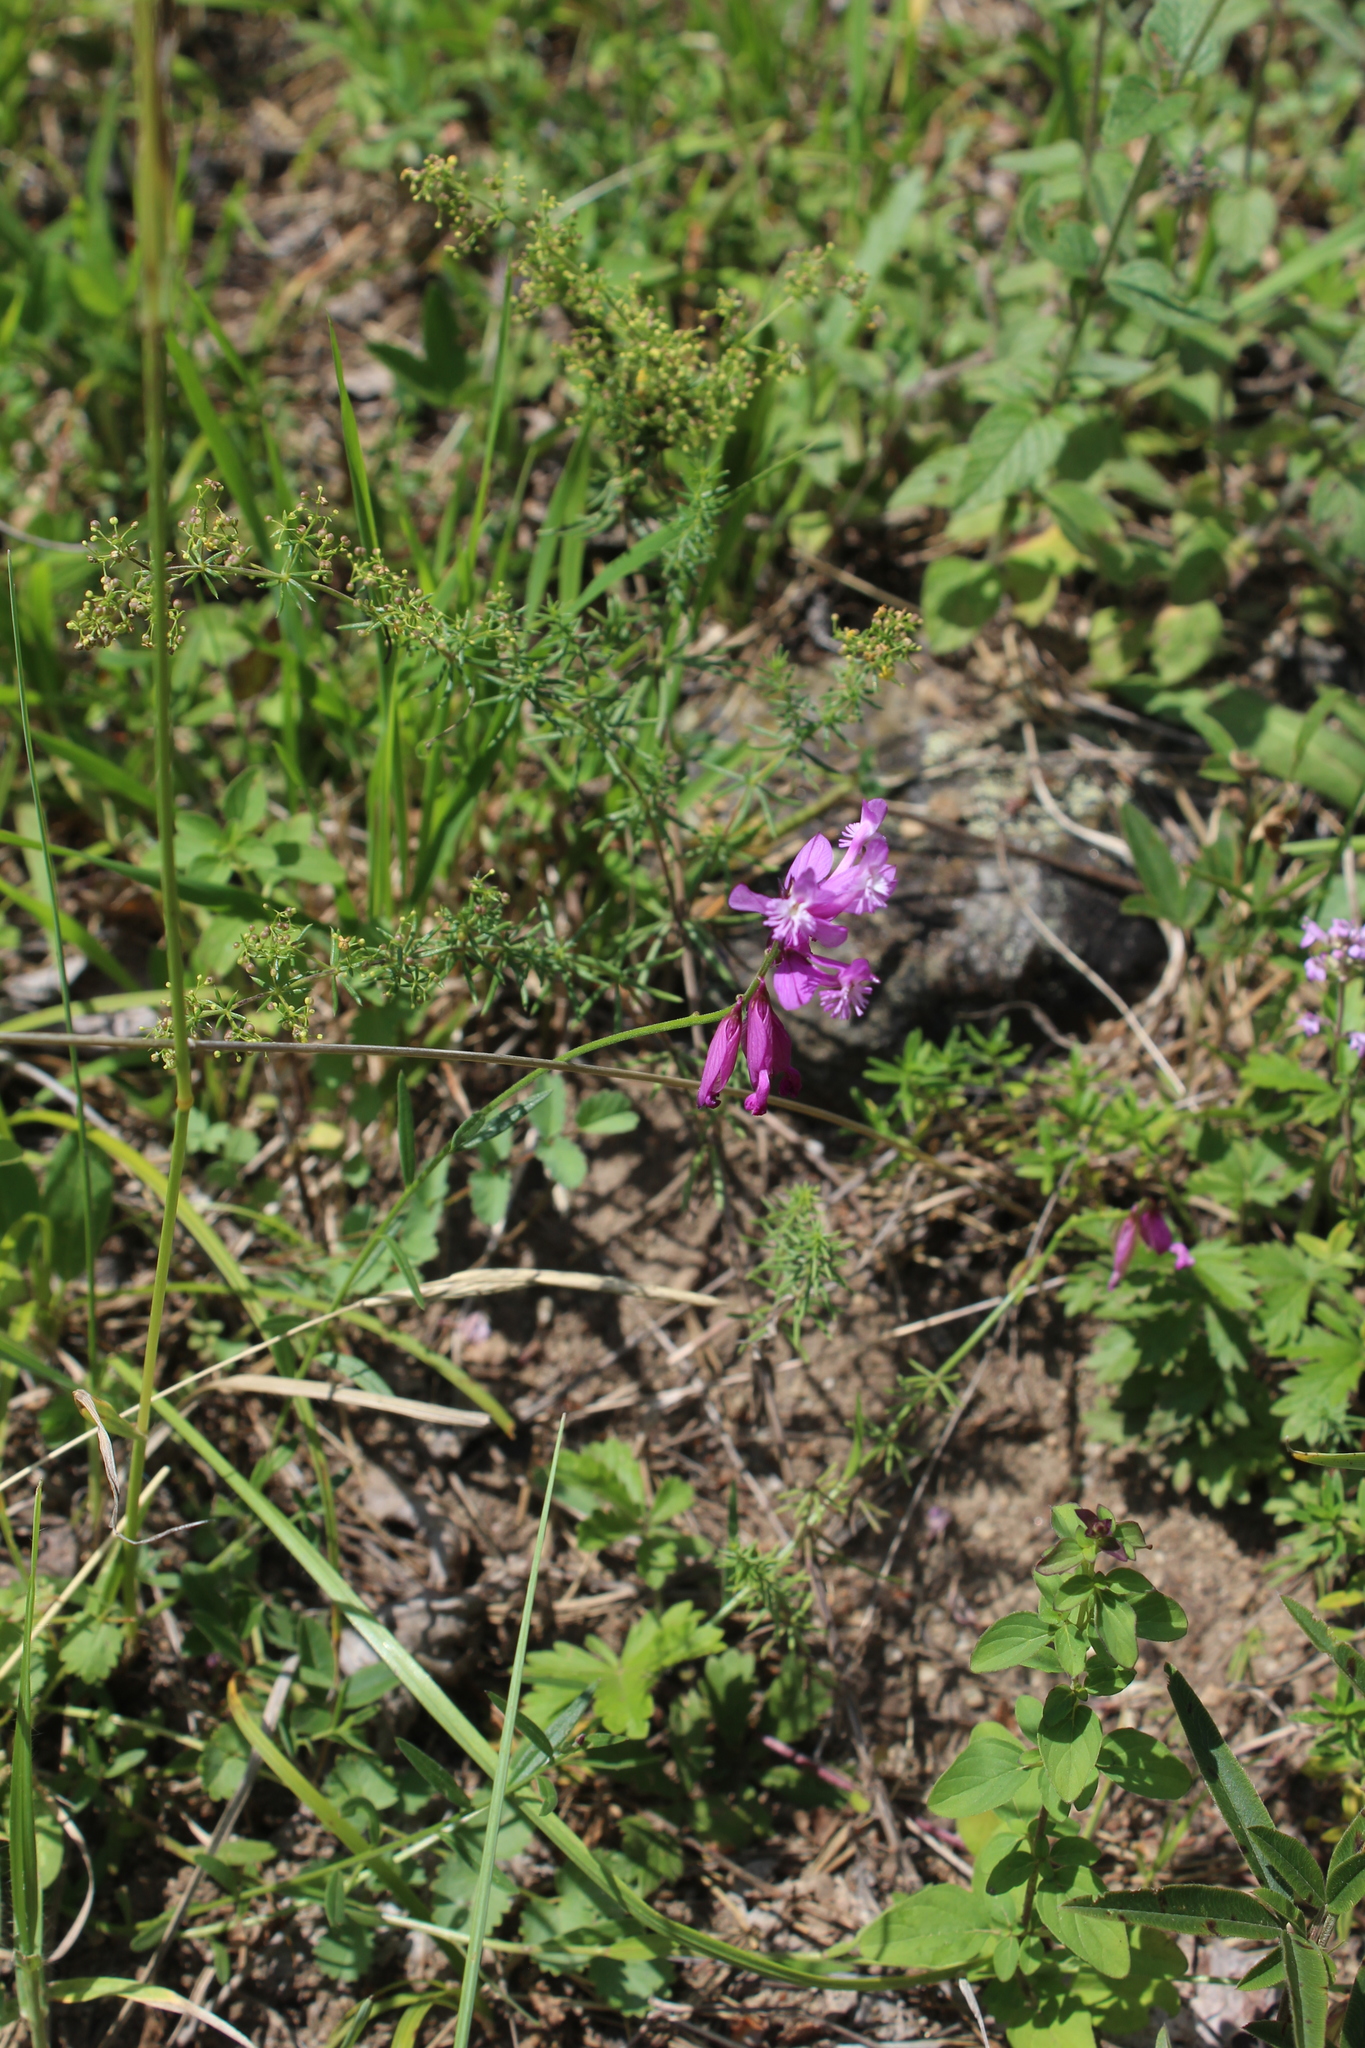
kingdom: Plantae
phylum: Tracheophyta
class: Magnoliopsida
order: Fabales
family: Polygalaceae
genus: Polygala
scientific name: Polygala anatolica
